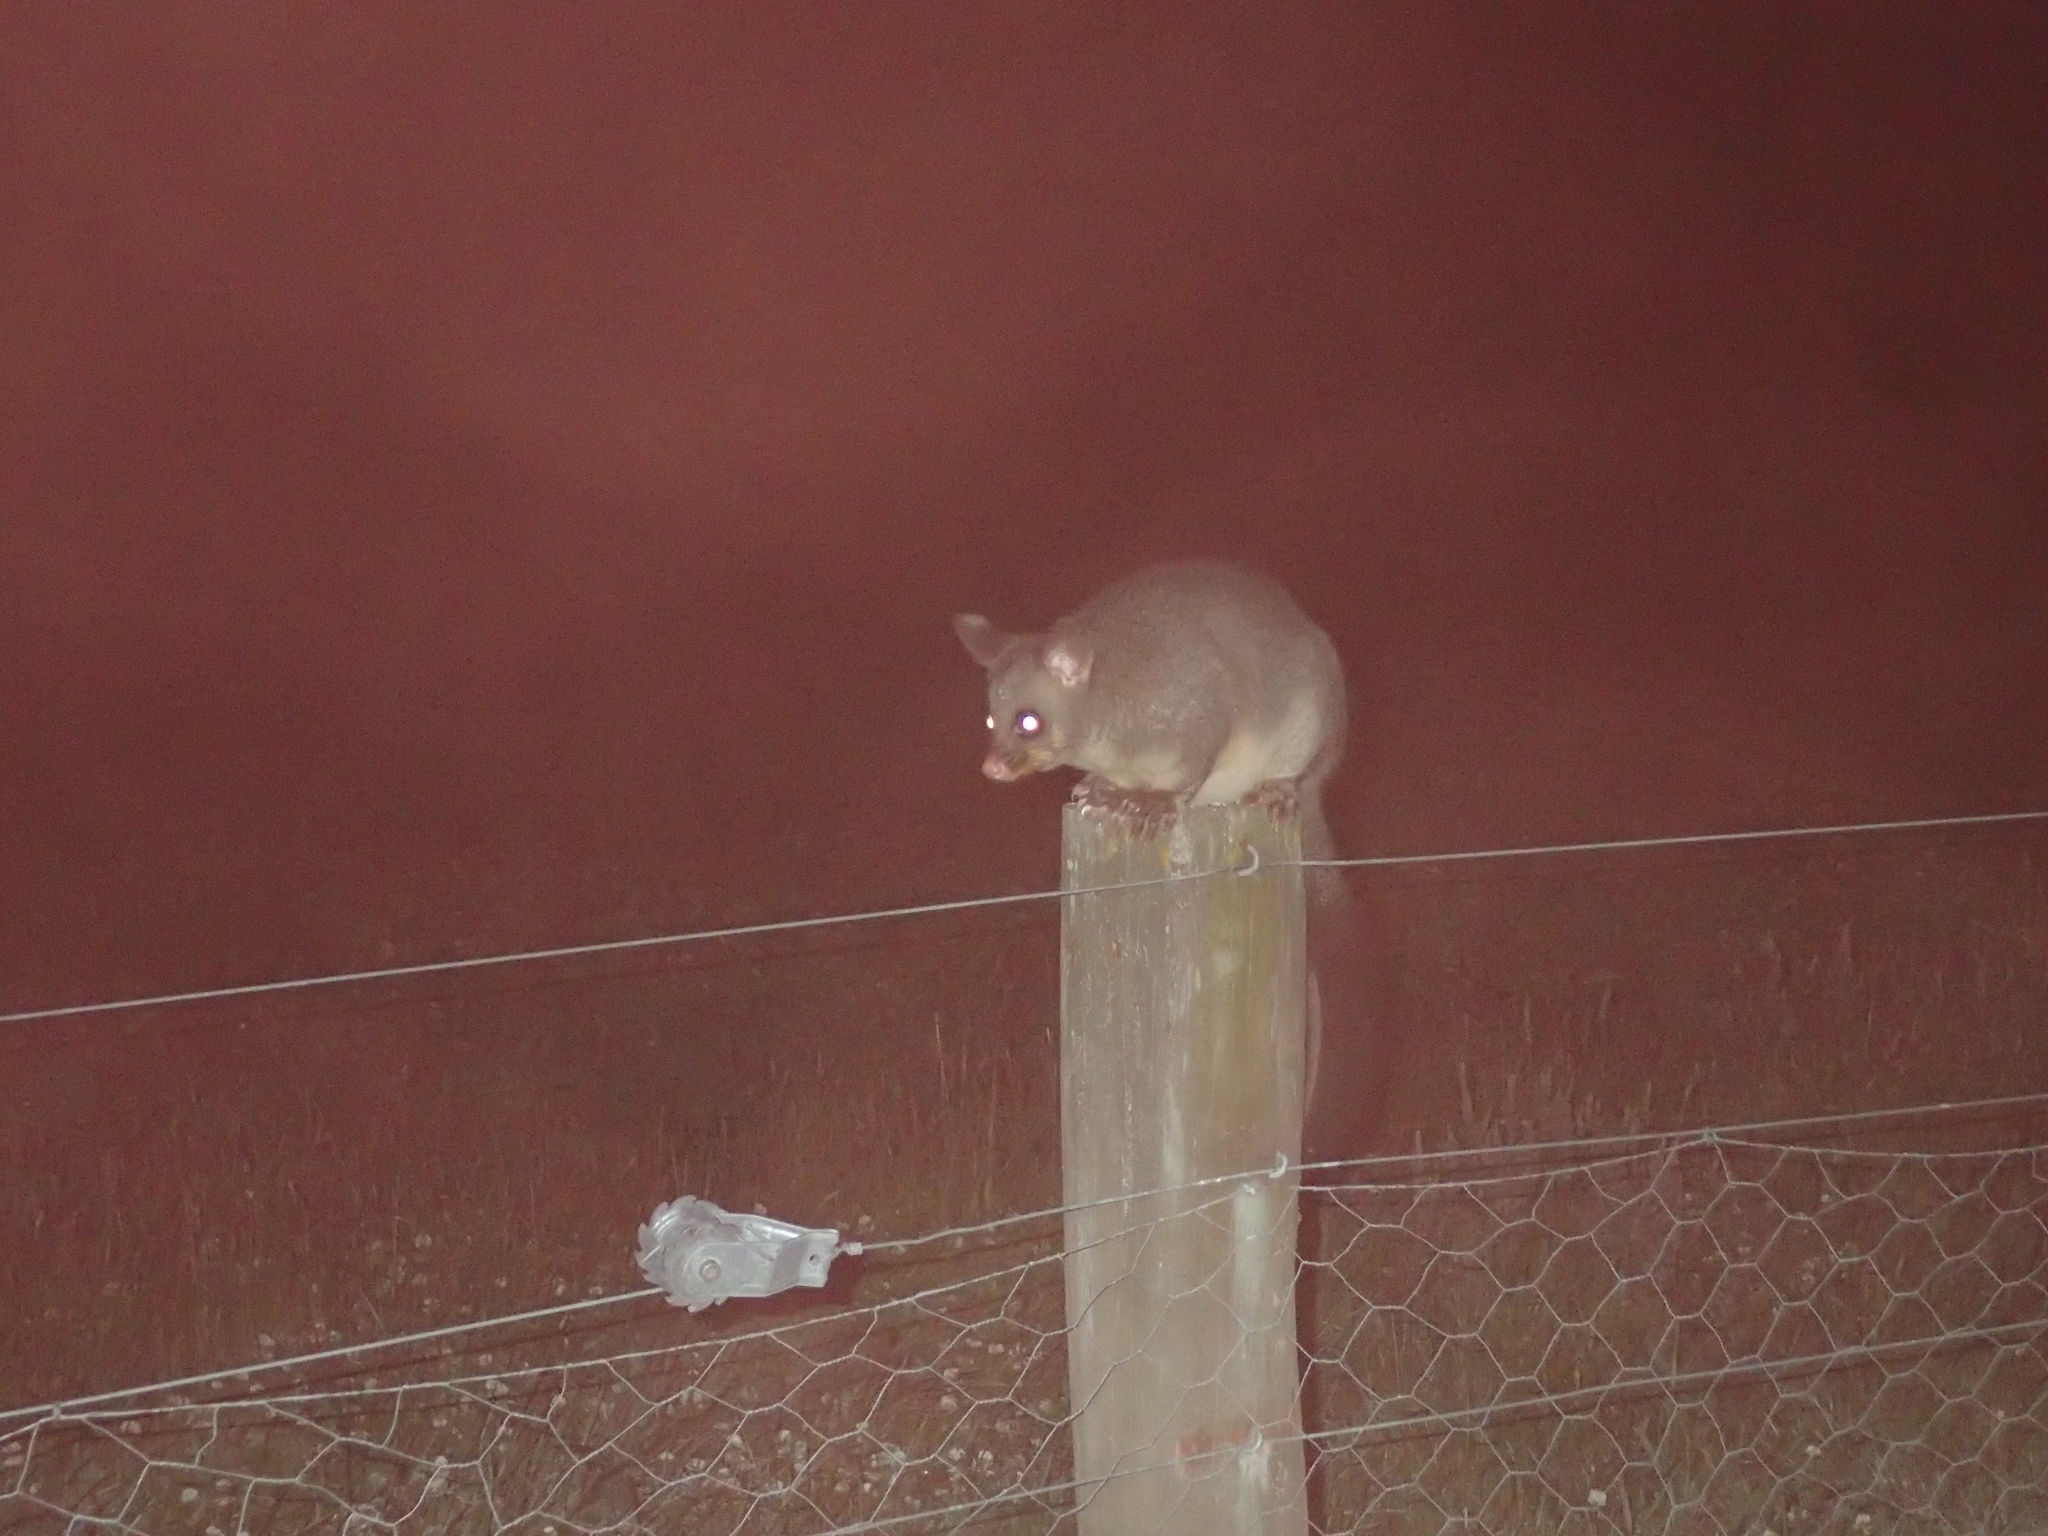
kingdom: Animalia
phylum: Chordata
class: Mammalia
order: Diprotodontia
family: Phalangeridae
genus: Trichosurus
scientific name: Trichosurus vulpecula
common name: Common brushtail
